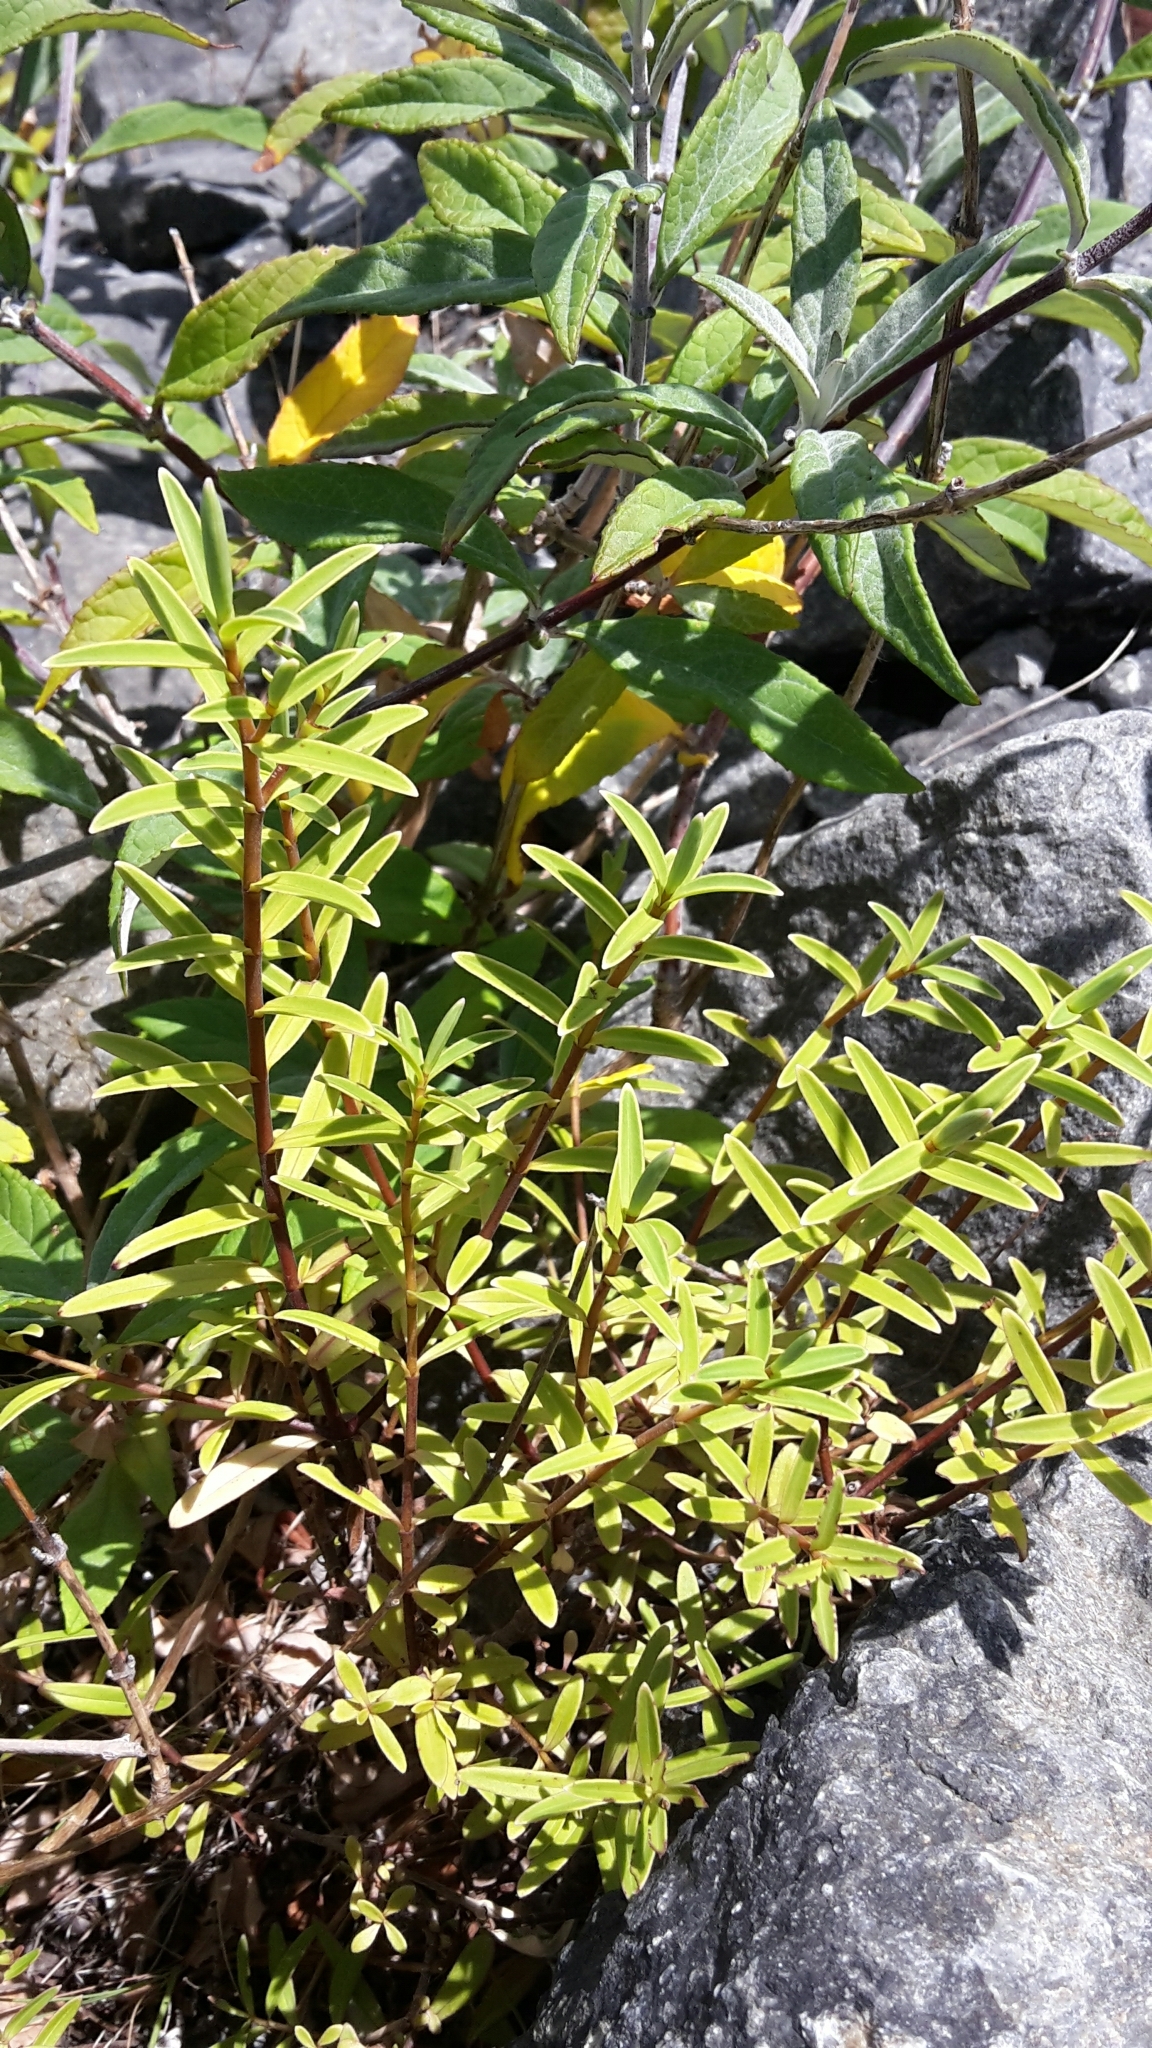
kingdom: Plantae
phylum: Tracheophyta
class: Magnoliopsida
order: Lamiales
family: Plantaginaceae
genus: Veronica
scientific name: Veronica parviflora
